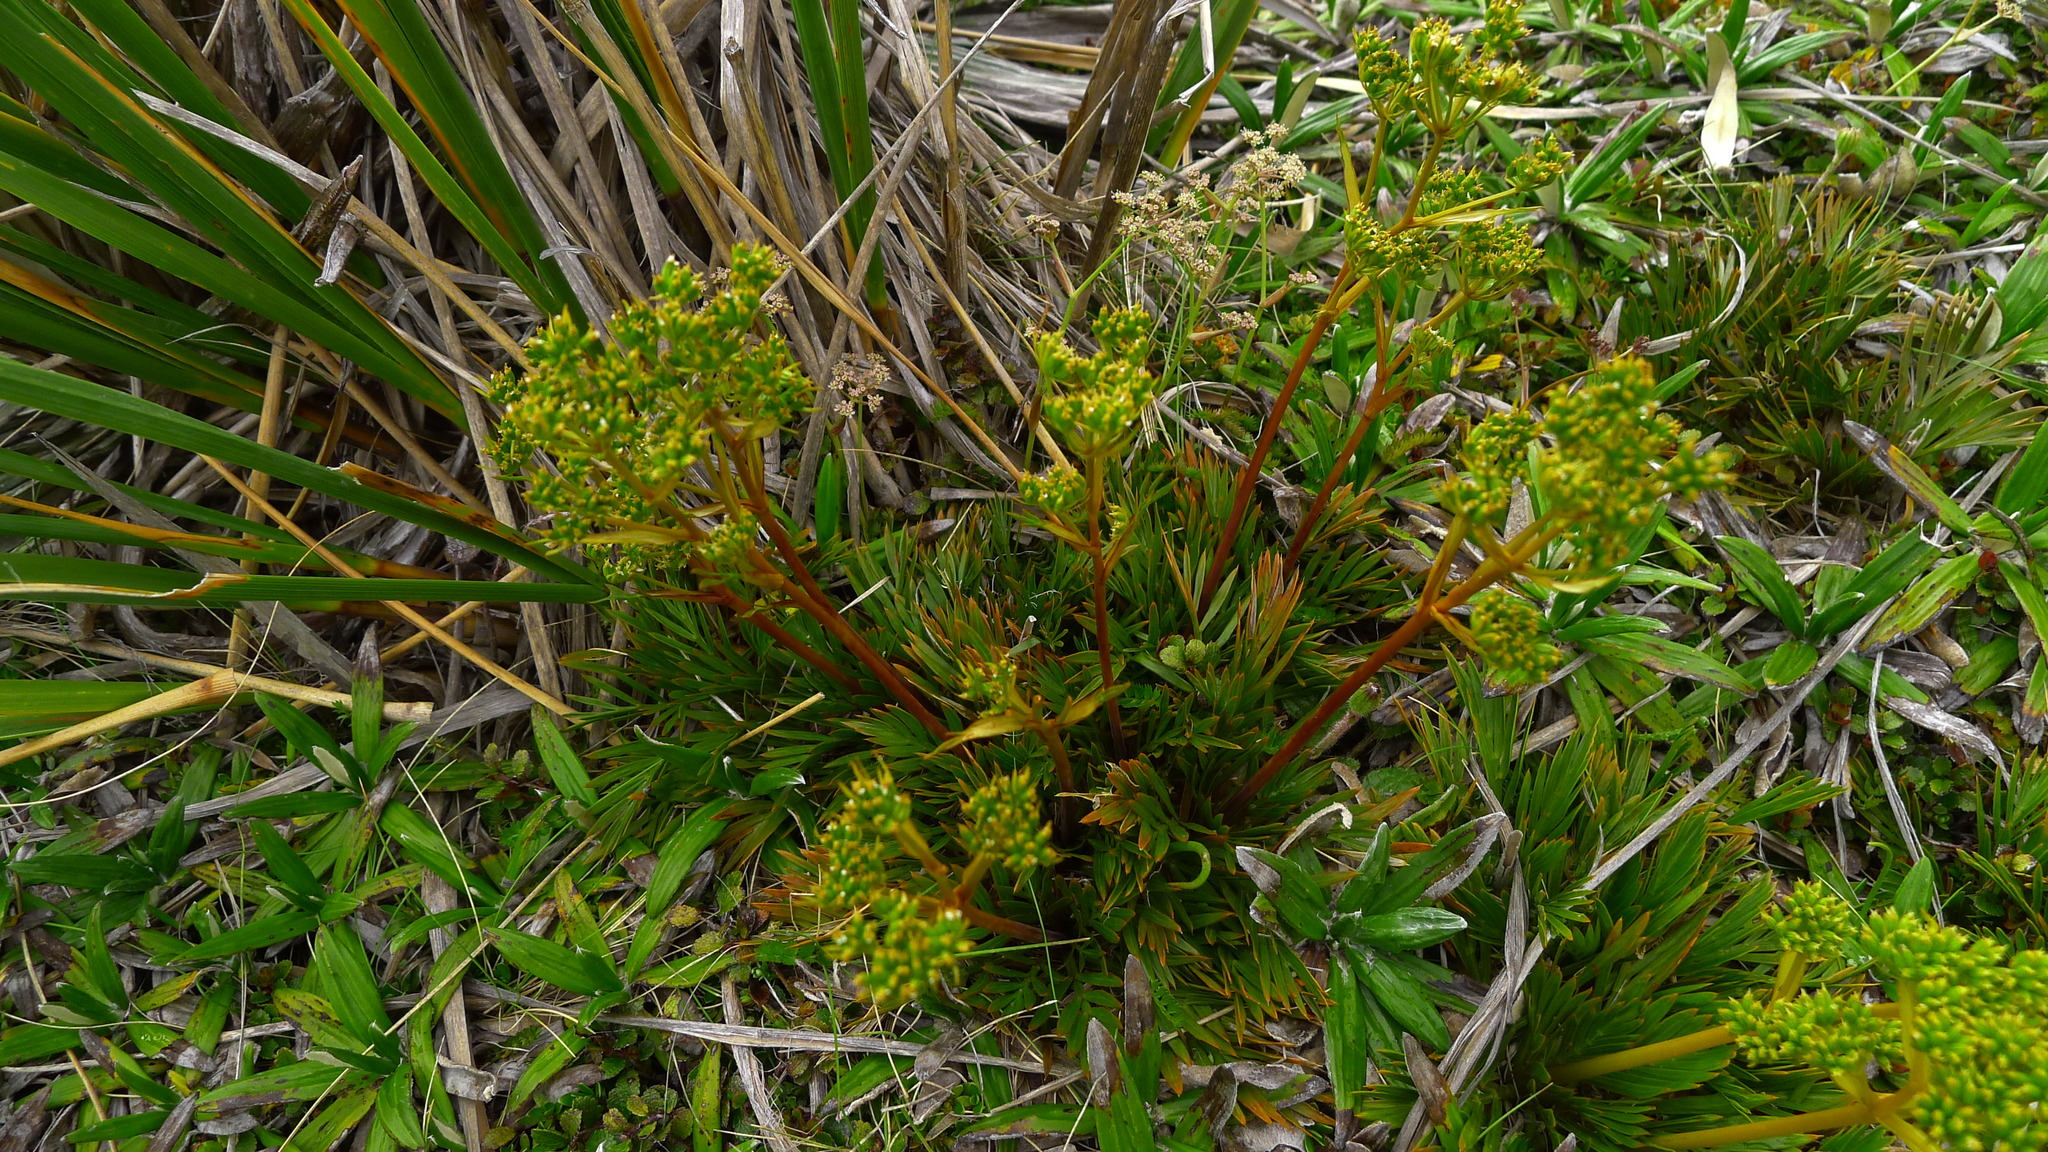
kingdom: Plantae
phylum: Tracheophyta
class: Magnoliopsida
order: Apiales
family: Apiaceae
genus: Aciphylla
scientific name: Aciphylla monroi
